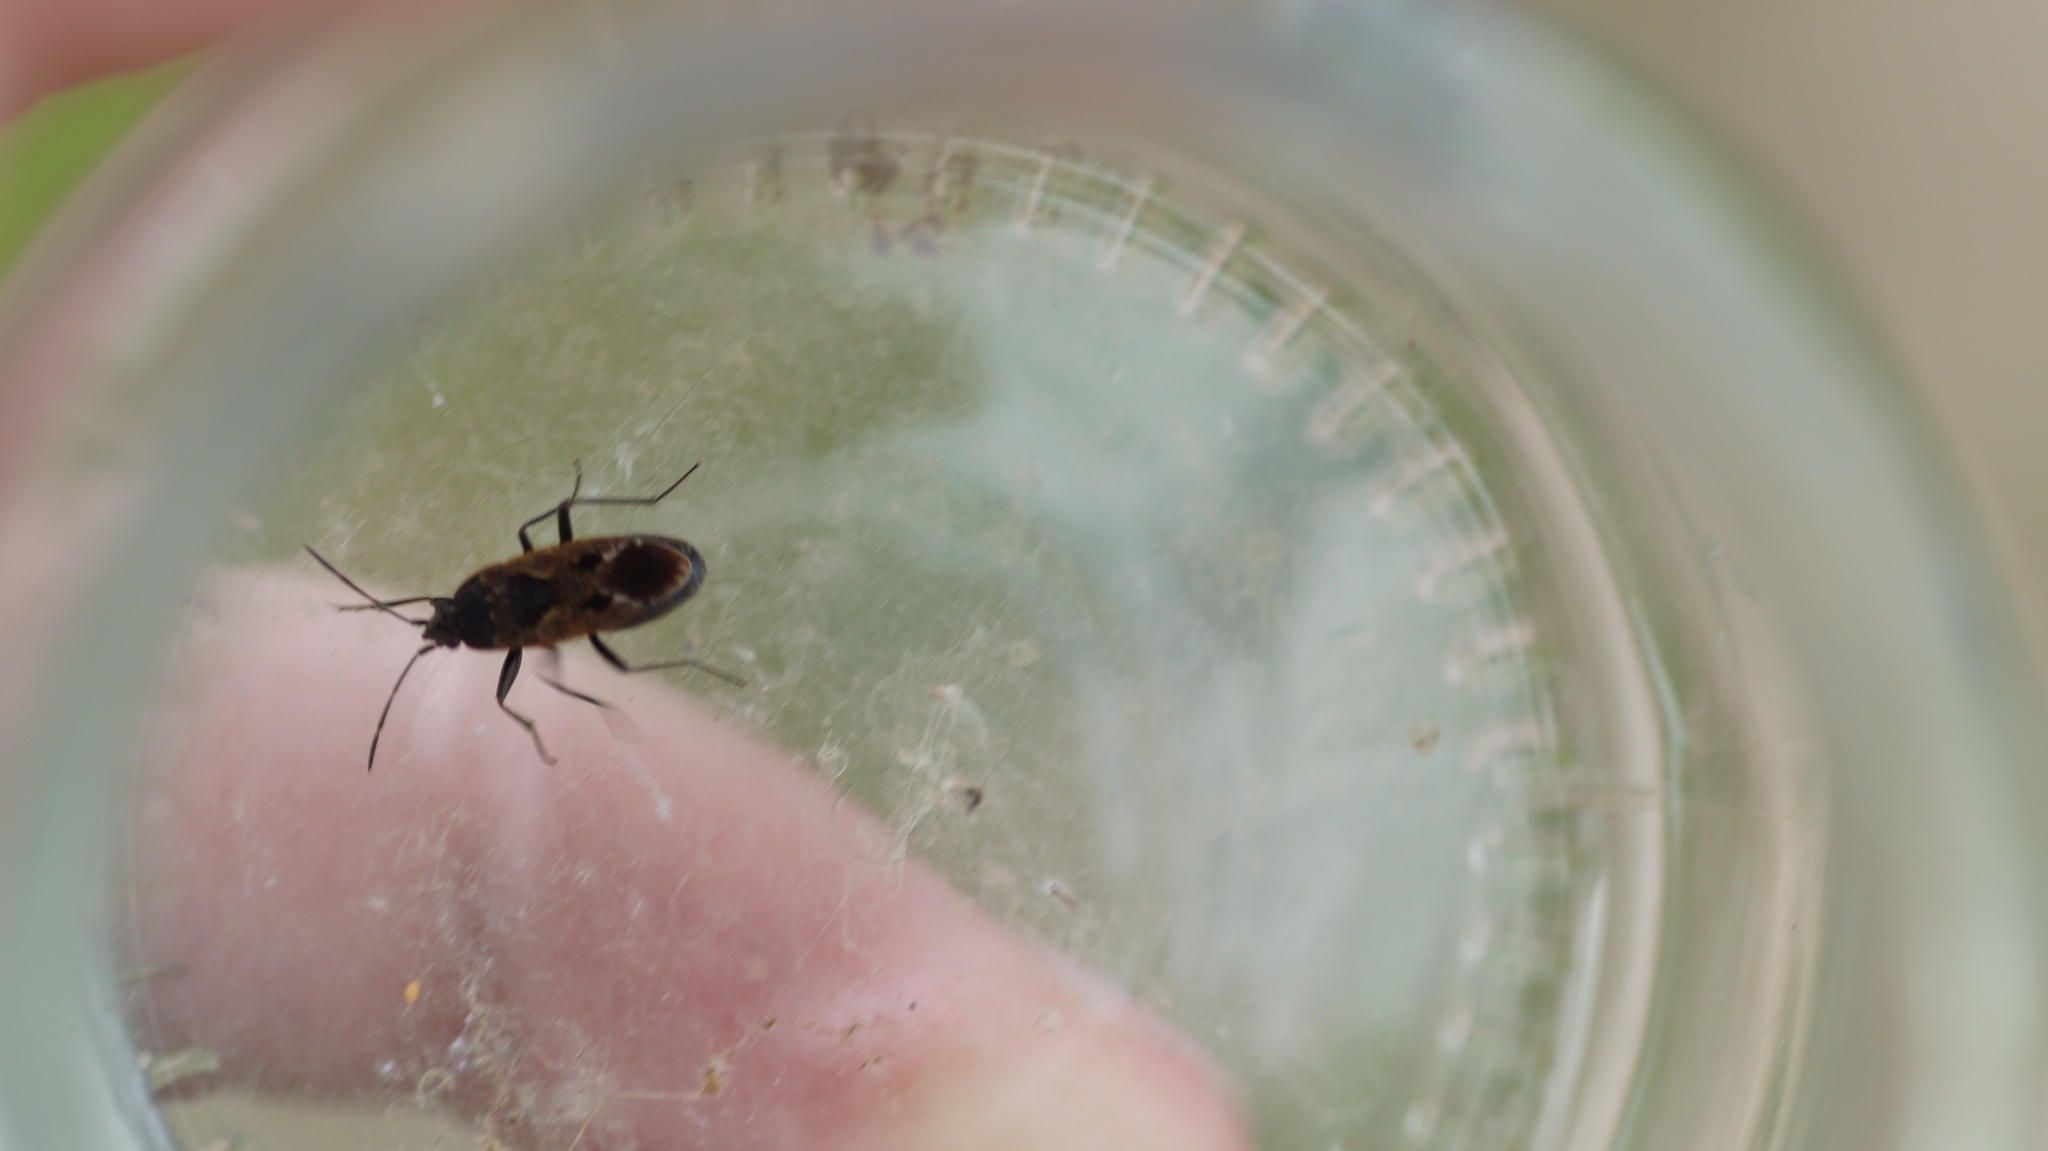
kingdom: Animalia
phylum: Arthropoda
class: Insecta
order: Hemiptera
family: Rhyparochromidae
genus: Rhyparochromus
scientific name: Rhyparochromus pini
